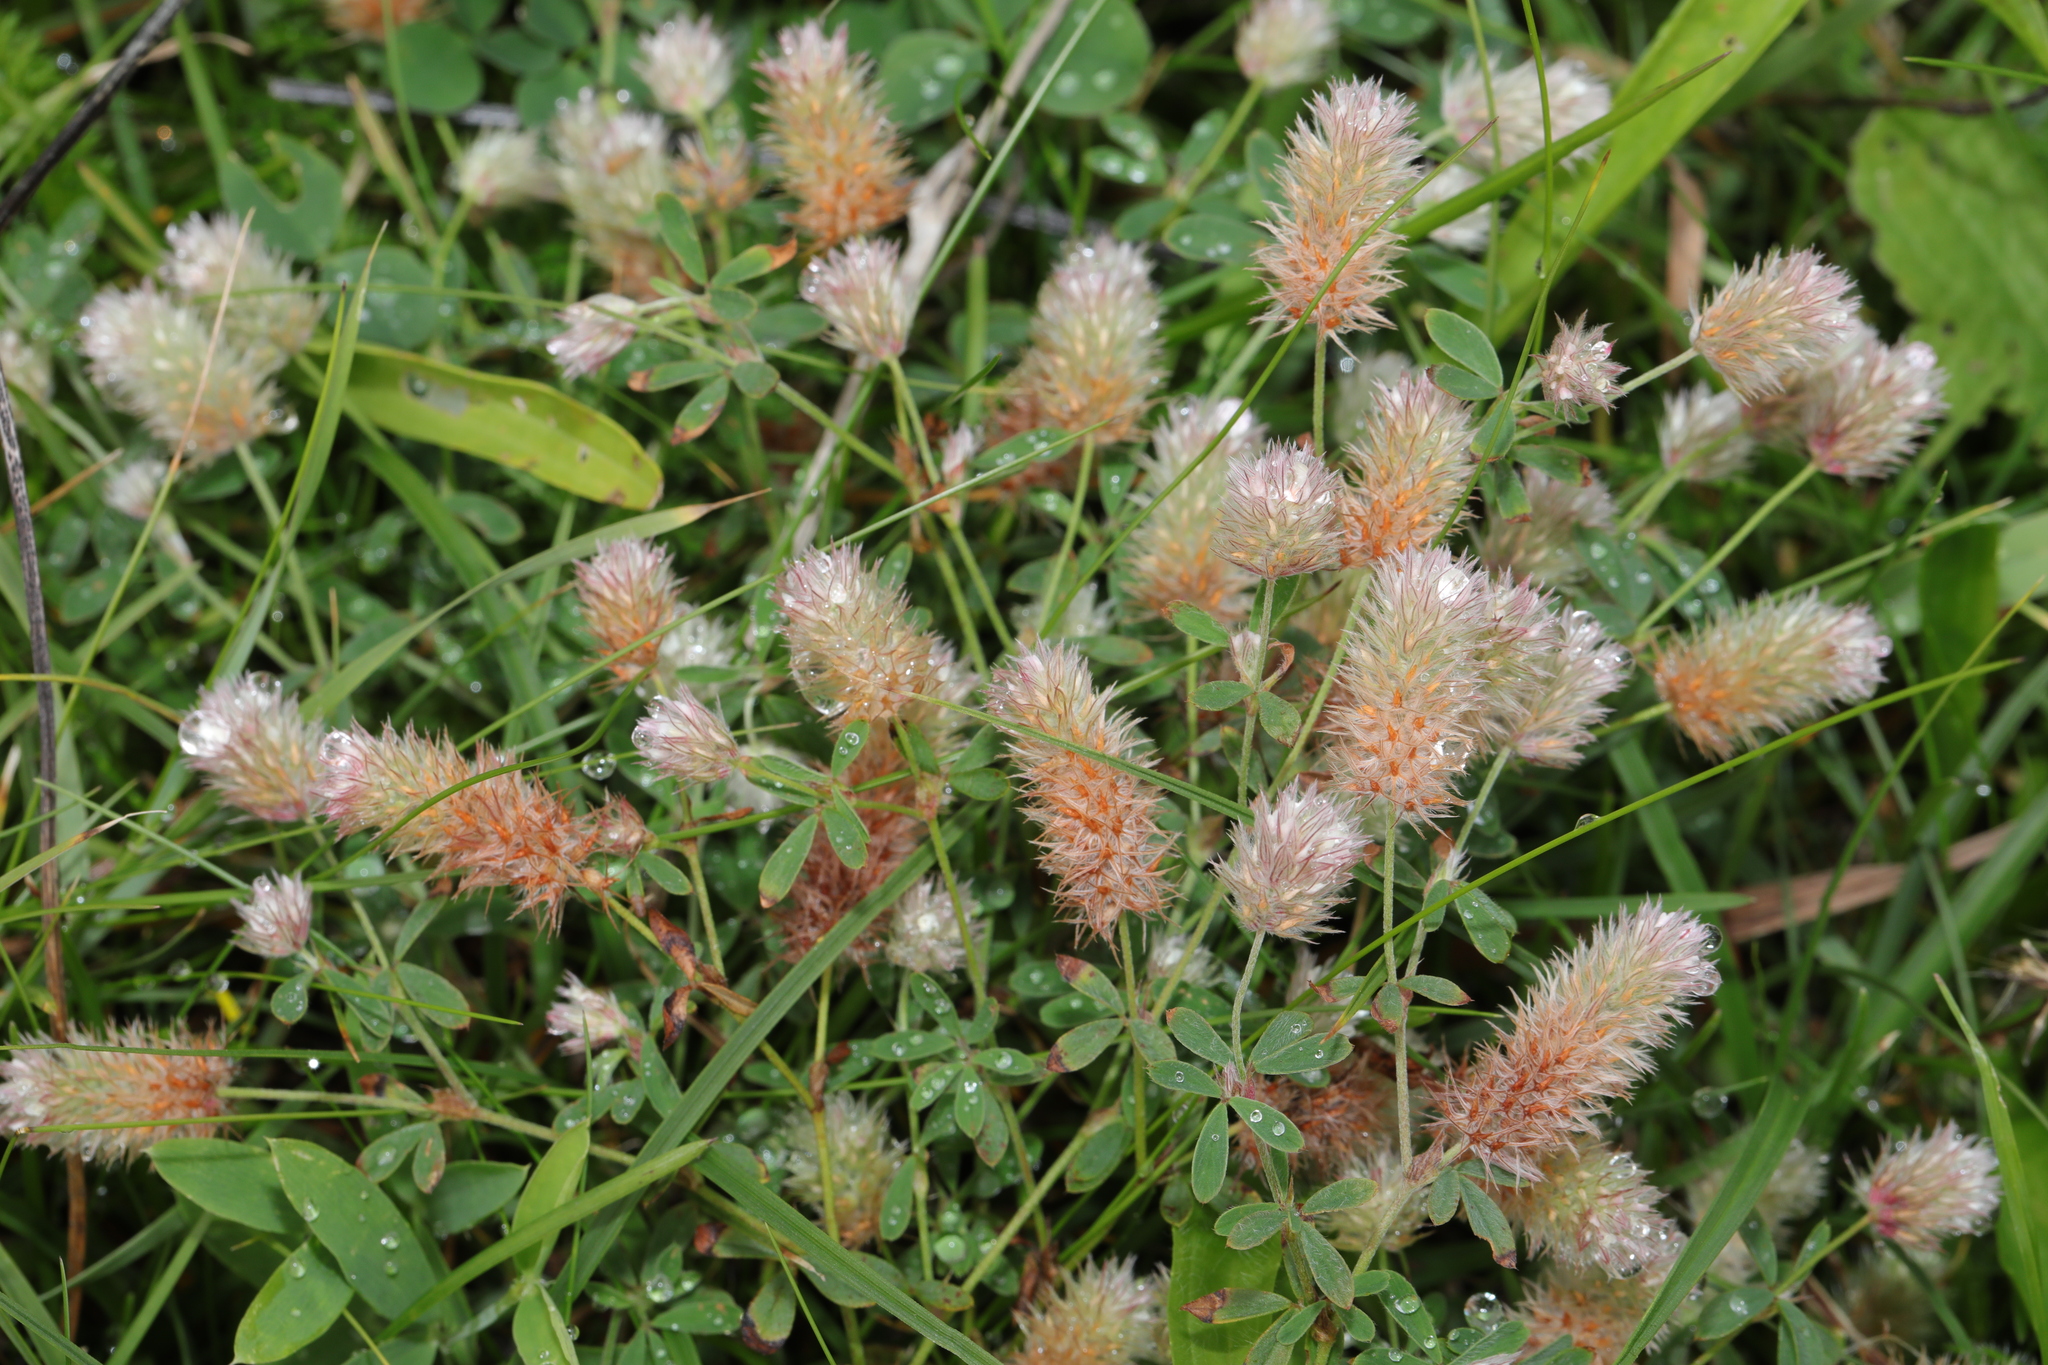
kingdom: Plantae
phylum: Tracheophyta
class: Magnoliopsida
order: Fabales
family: Fabaceae
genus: Trifolium
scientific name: Trifolium arvense
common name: Hare's-foot clover
